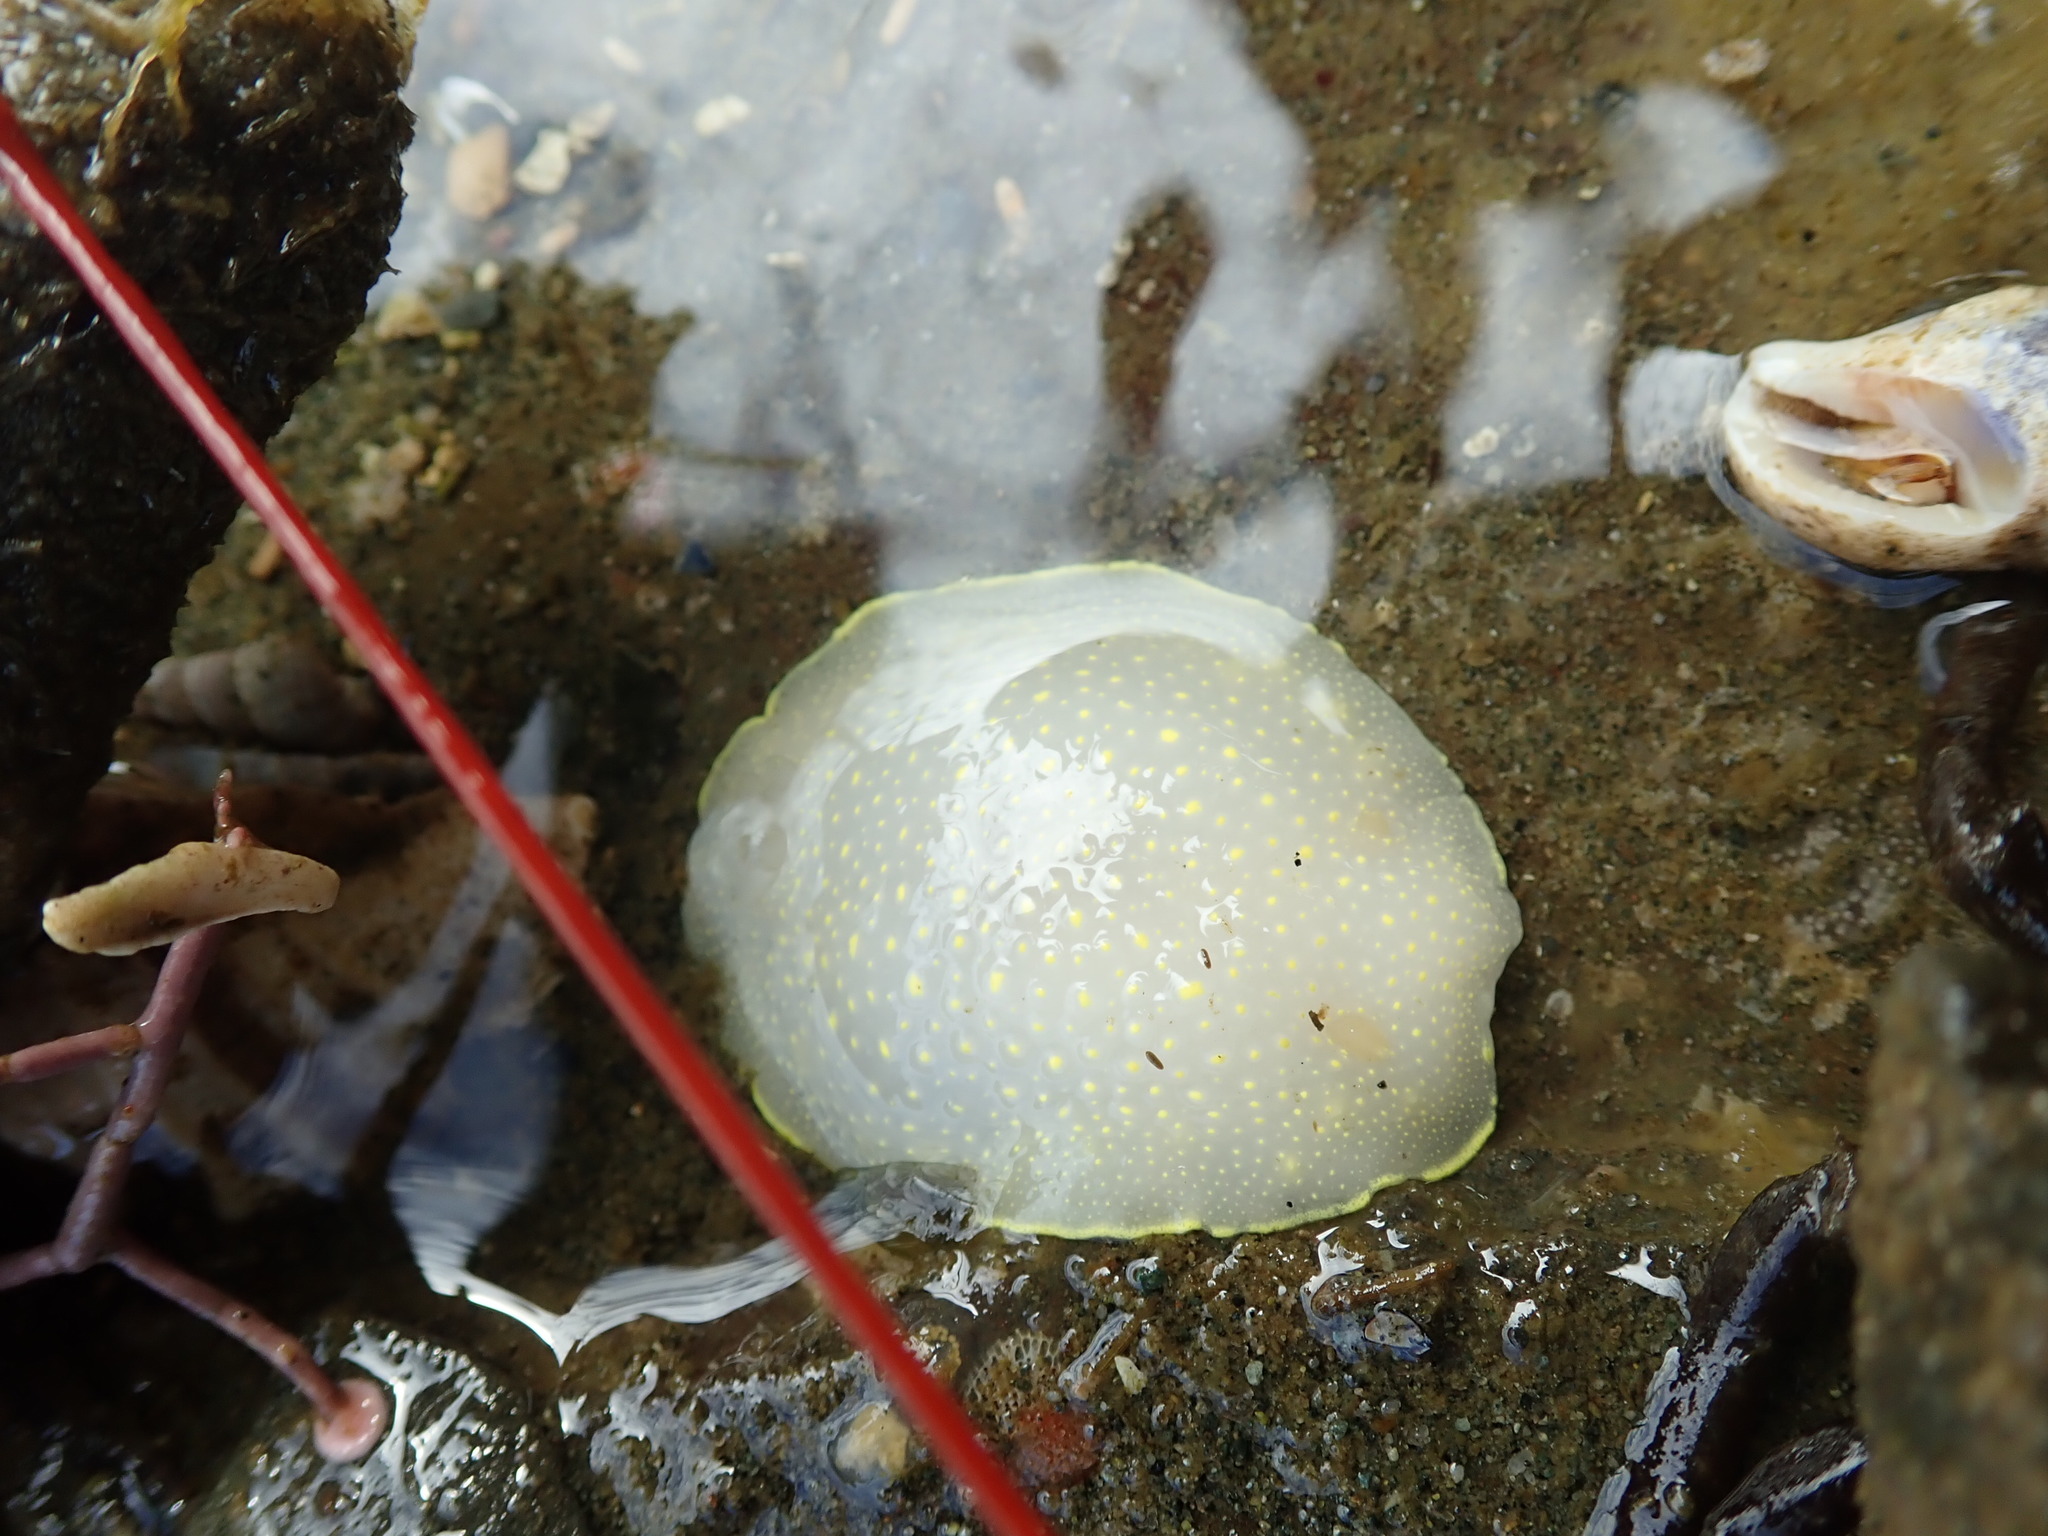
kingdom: Animalia
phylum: Mollusca
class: Gastropoda
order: Nudibranchia
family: Cadlinidae
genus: Cadlina
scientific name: Cadlina luteomarginata
